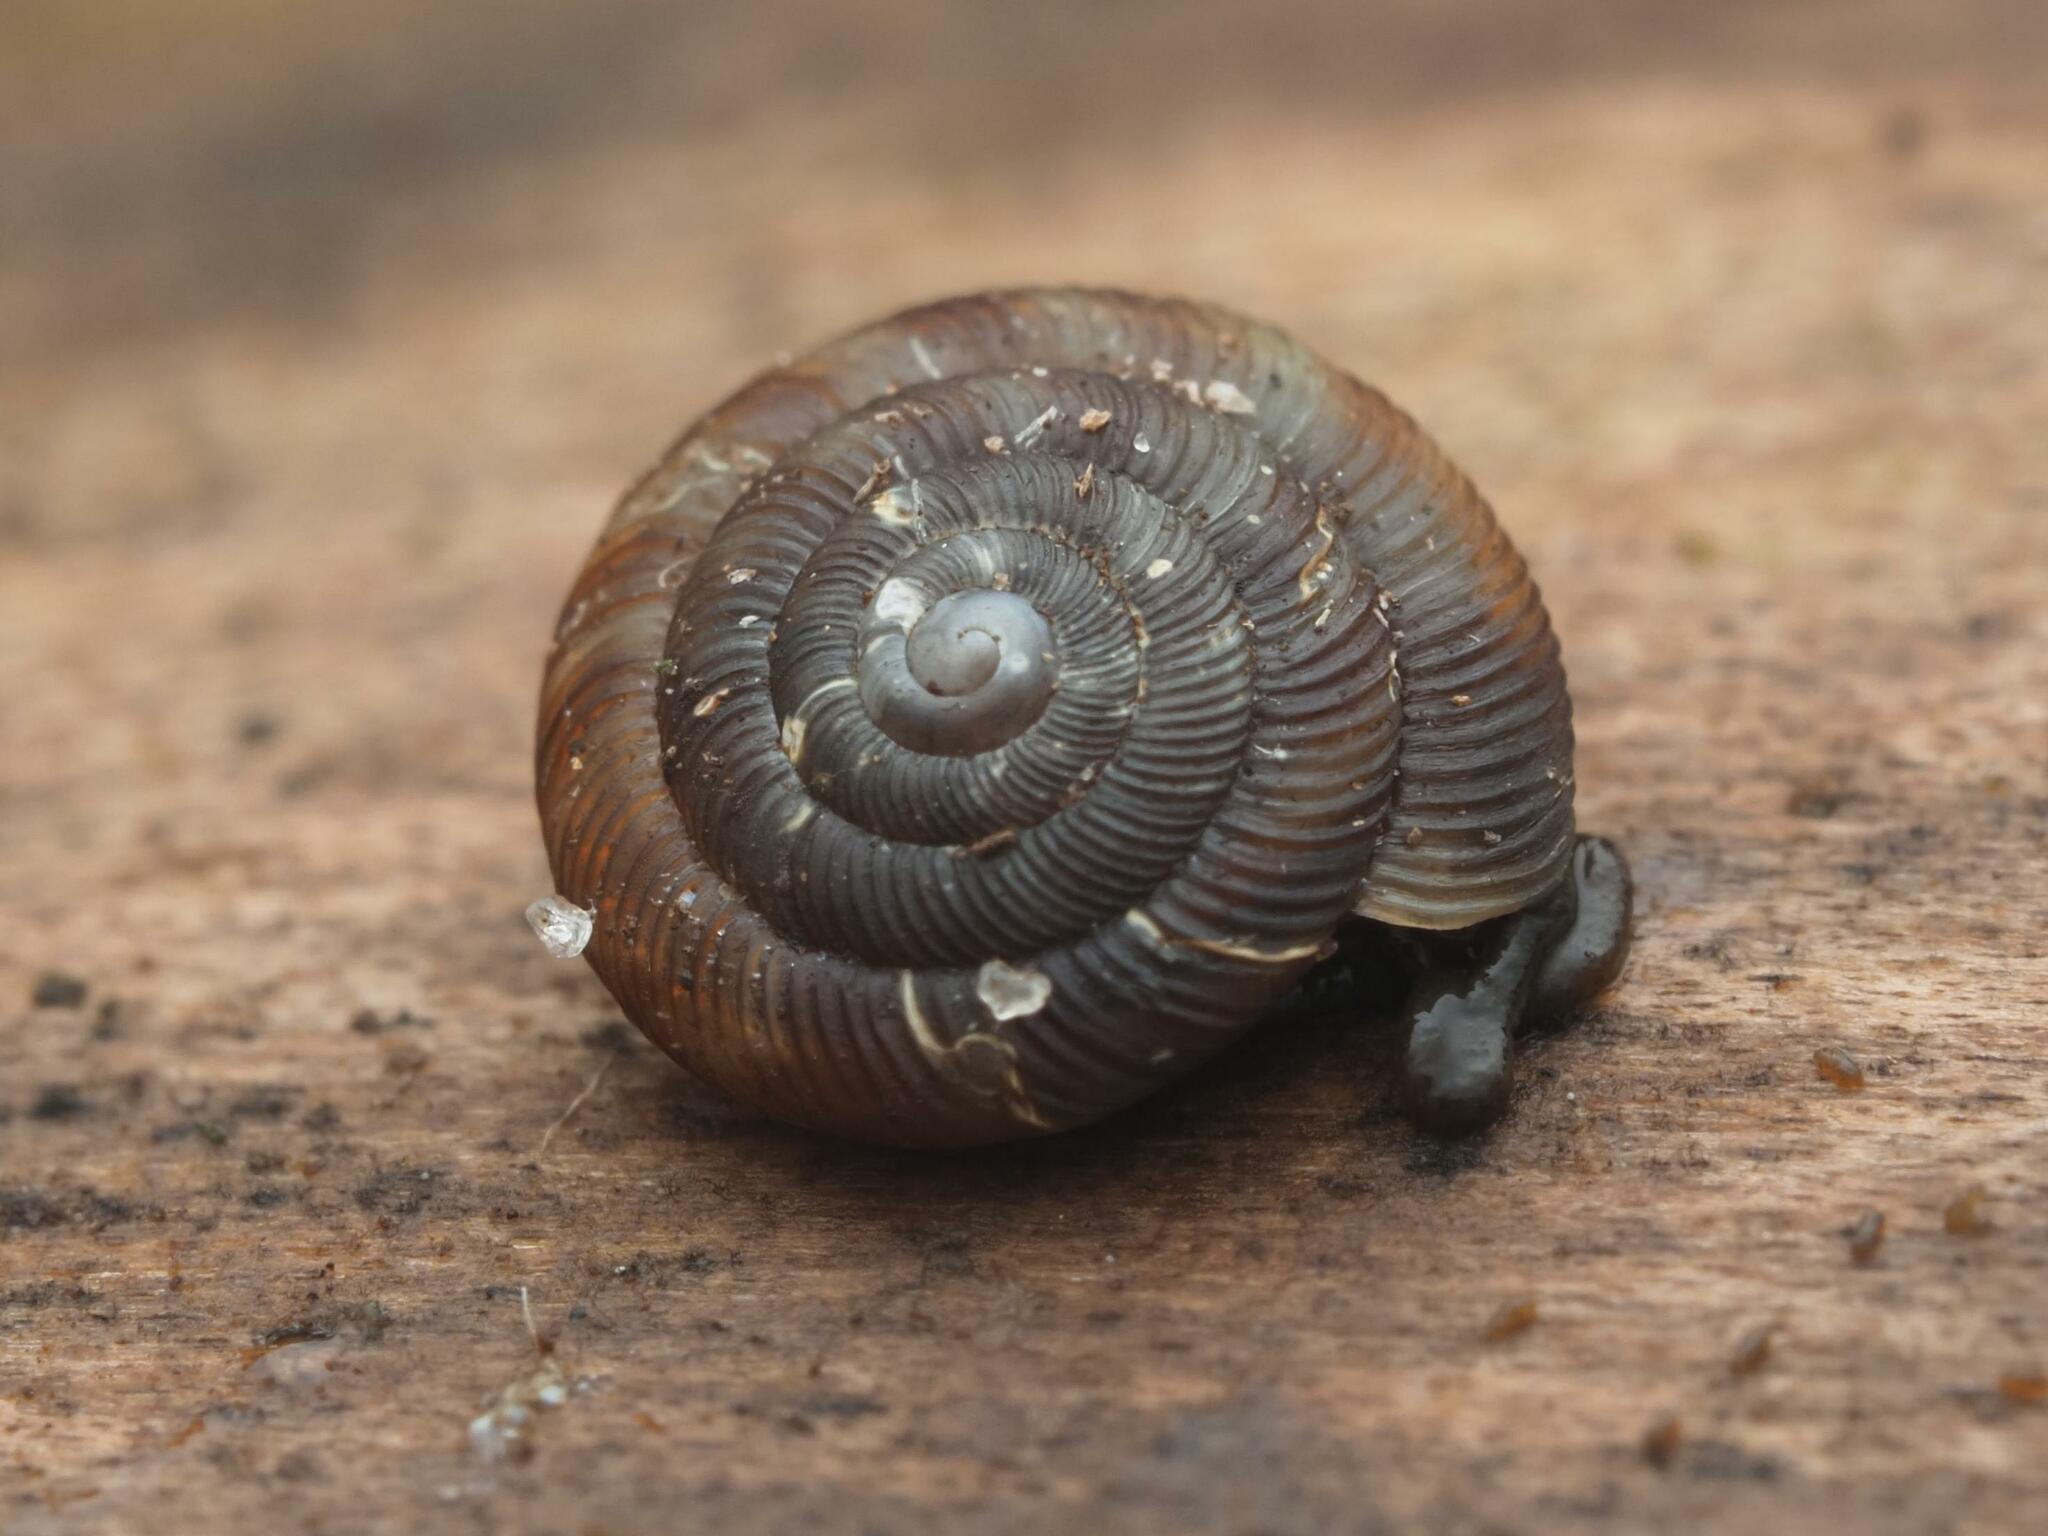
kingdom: Animalia
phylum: Mollusca
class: Gastropoda
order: Stylommatophora
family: Discidae
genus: Discus
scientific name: Discus rotundatus
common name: Rounded snail
